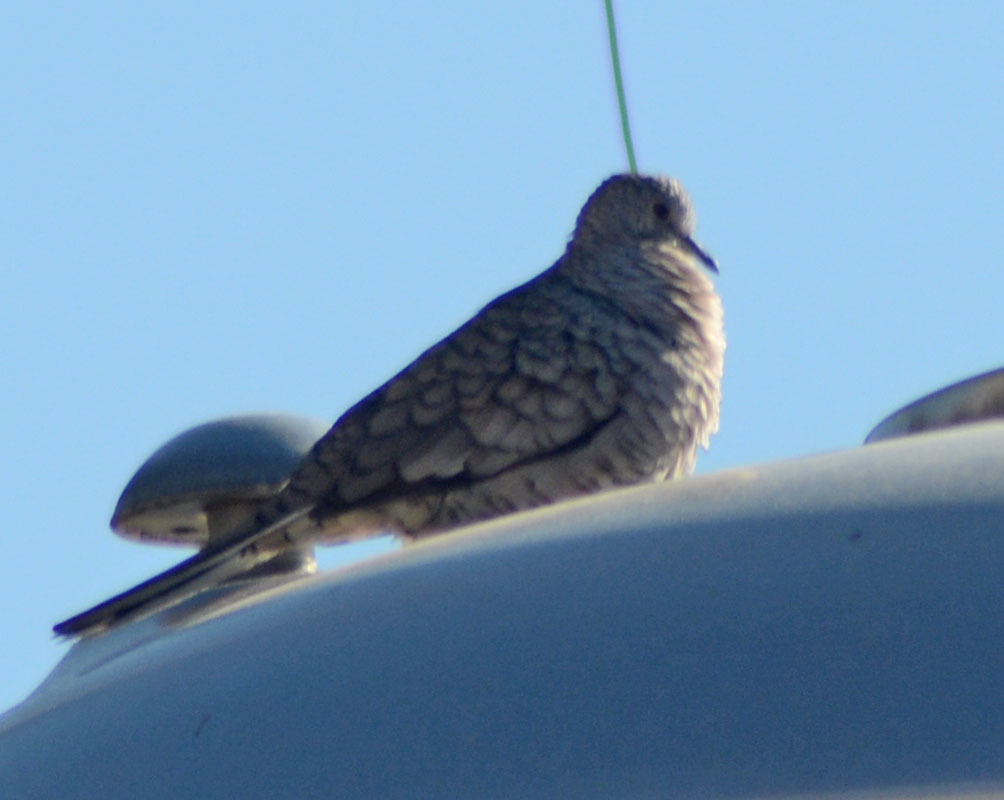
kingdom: Animalia
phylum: Chordata
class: Aves
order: Columbiformes
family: Columbidae
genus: Columbina
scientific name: Columbina inca
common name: Inca dove
